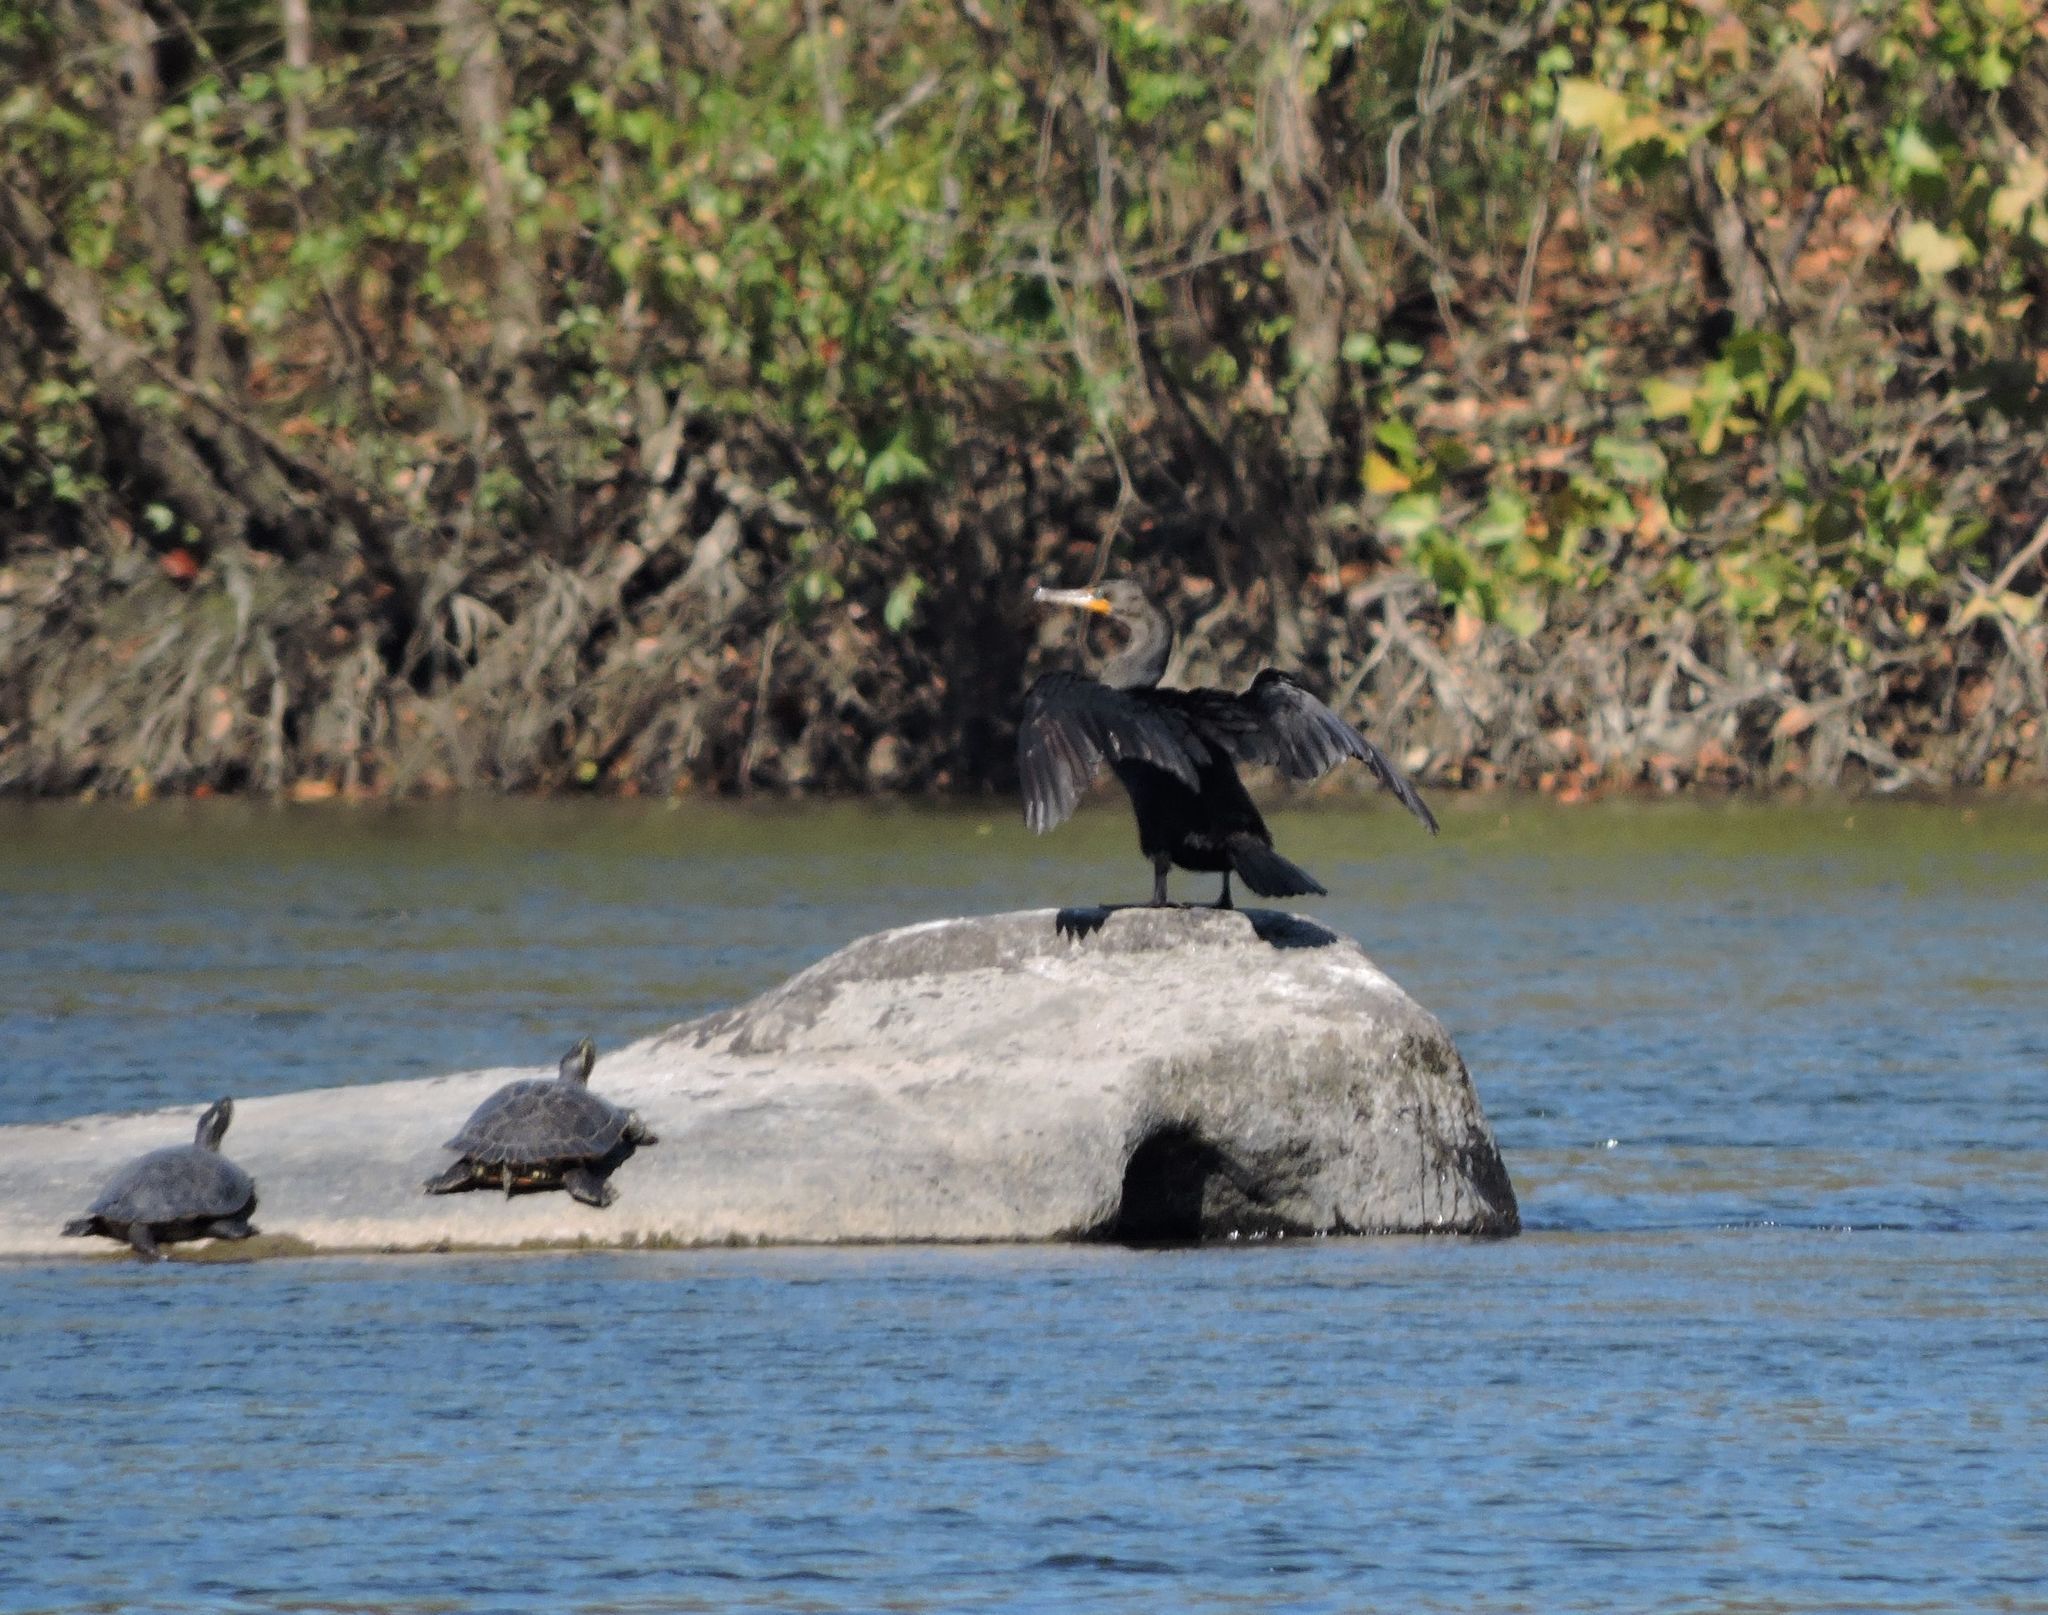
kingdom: Animalia
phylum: Chordata
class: Aves
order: Suliformes
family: Phalacrocoracidae
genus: Phalacrocorax
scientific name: Phalacrocorax auritus
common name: Double-crested cormorant
